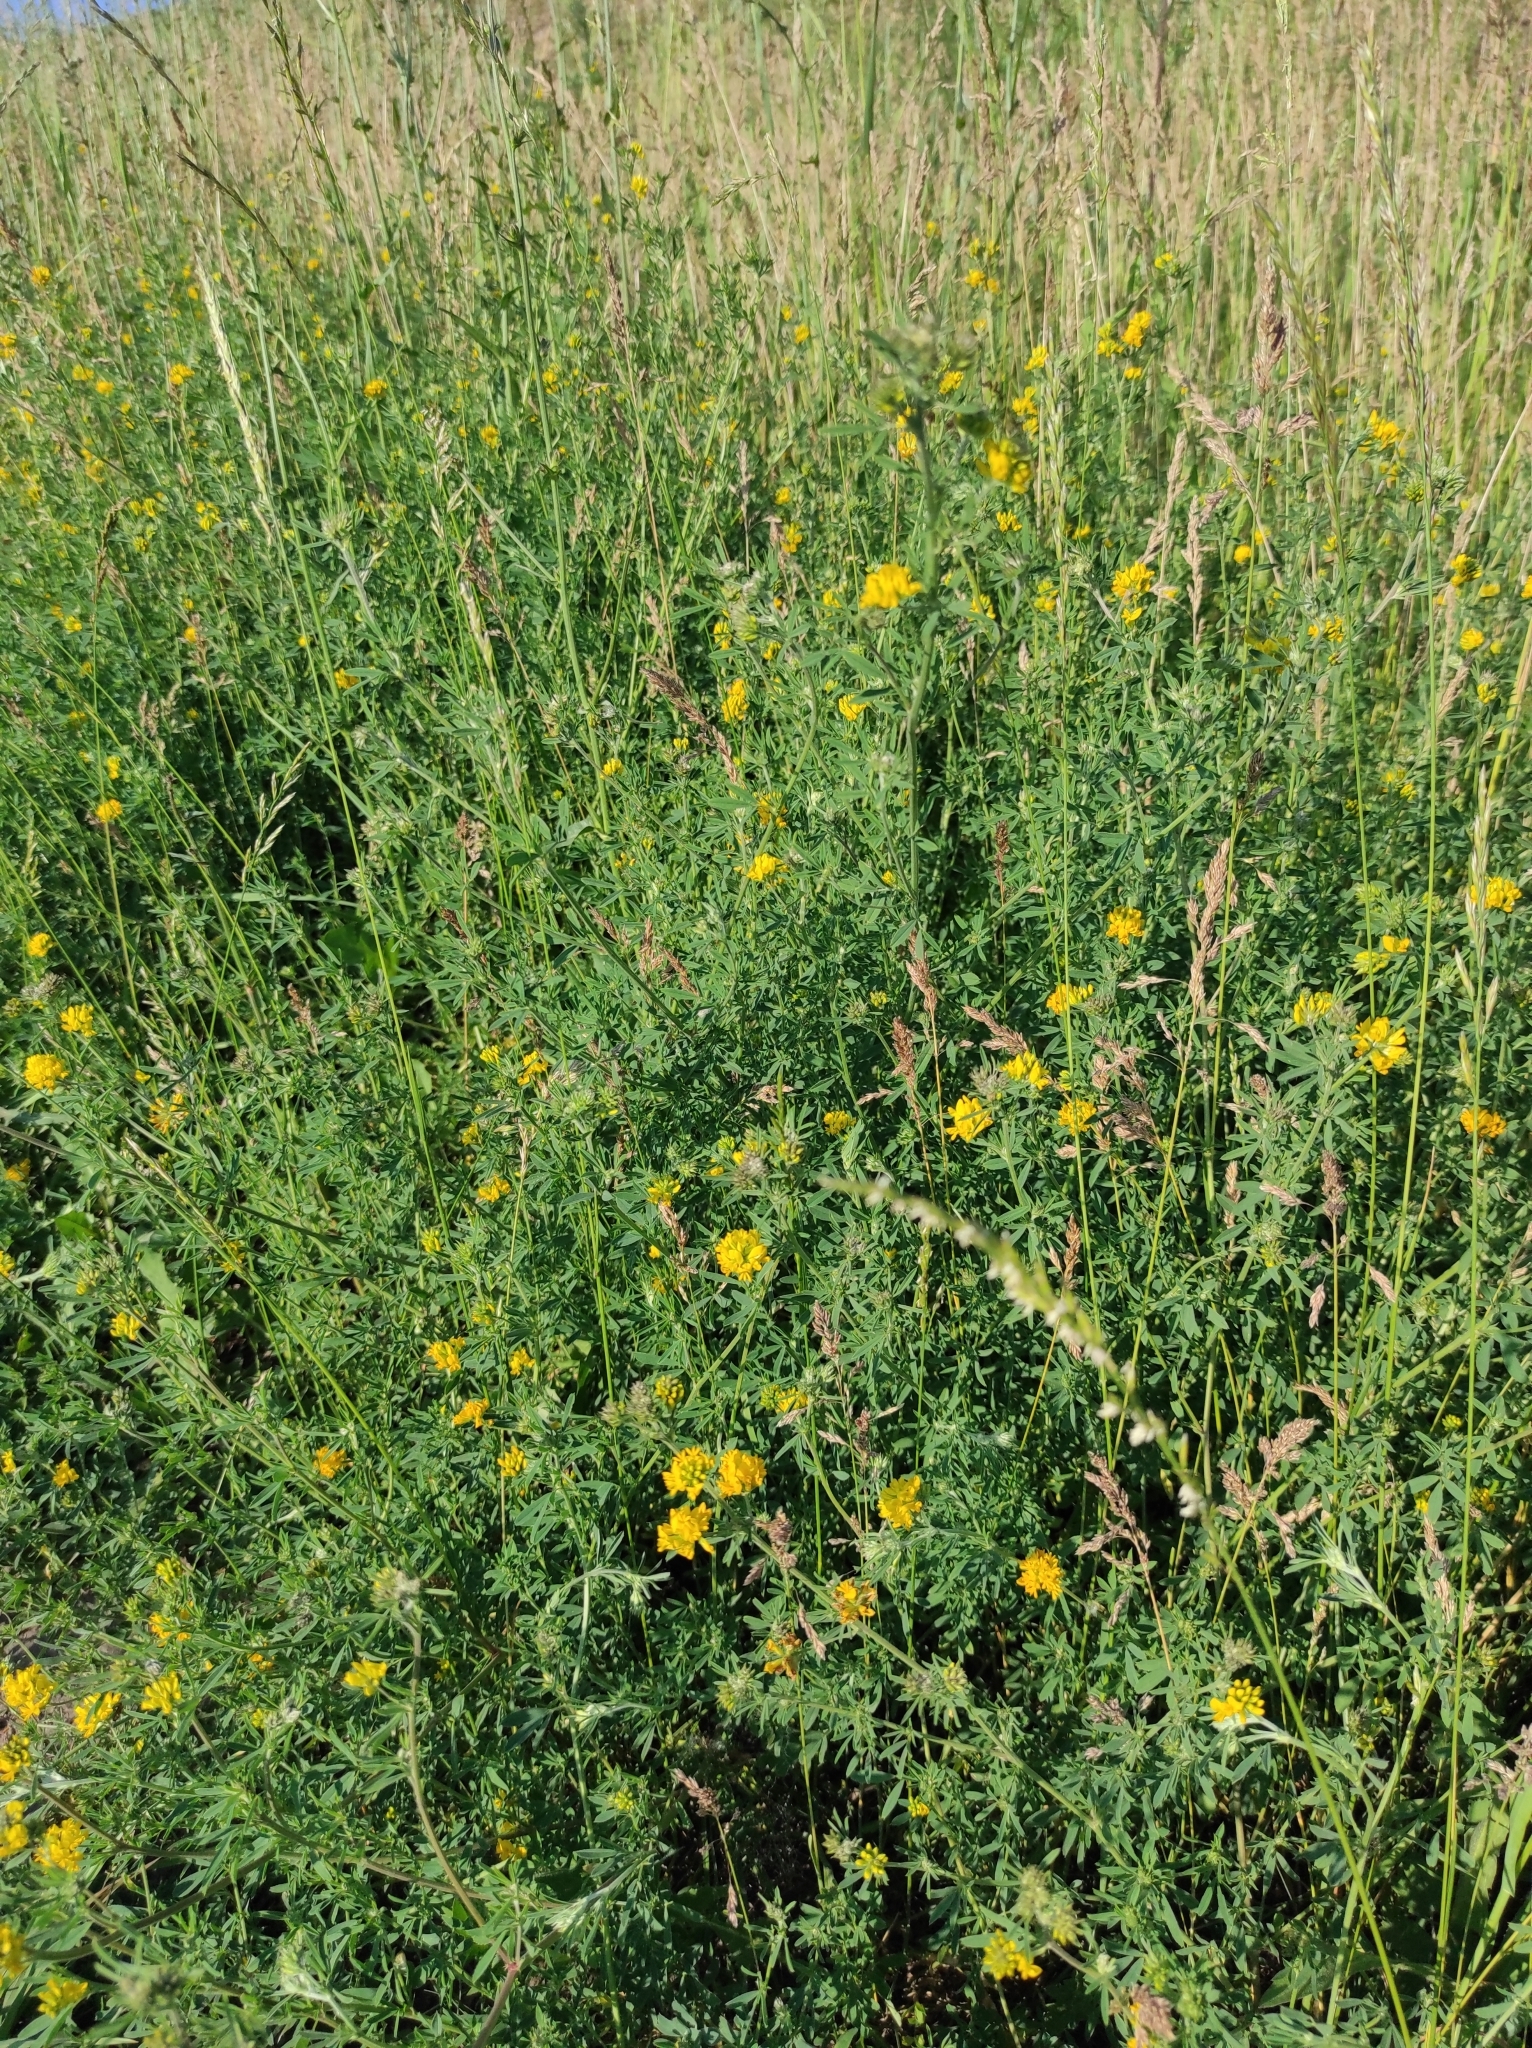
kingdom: Plantae
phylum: Tracheophyta
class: Magnoliopsida
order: Fabales
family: Fabaceae
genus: Medicago
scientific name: Medicago falcata
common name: Sickle medick
